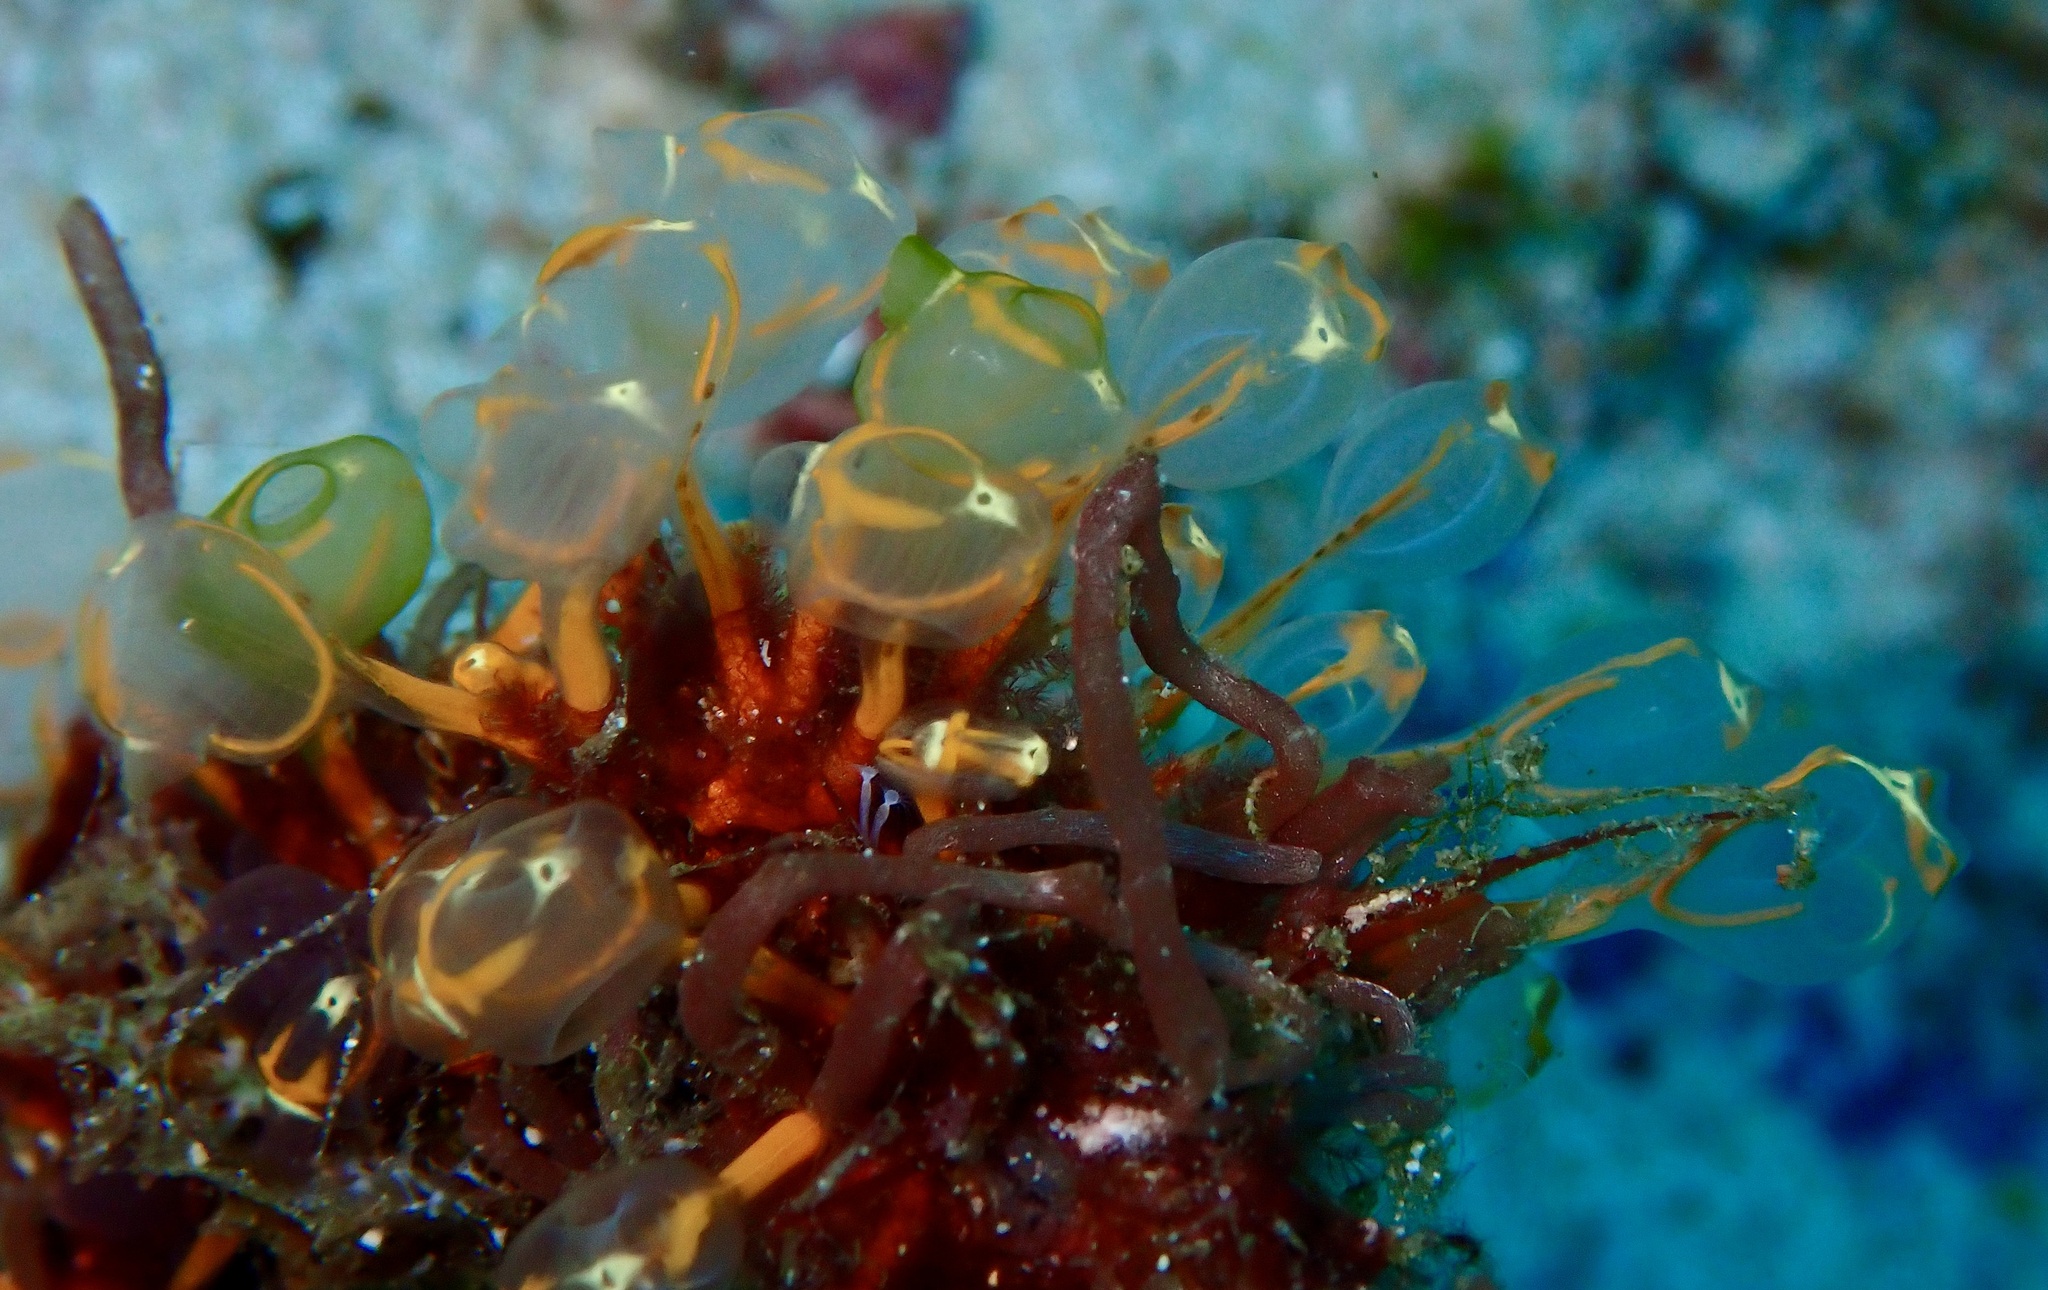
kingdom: Animalia
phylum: Chordata
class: Ascidiacea
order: Aplousobranchia
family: Clavelinidae
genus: Pycnoclavella
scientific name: Pycnoclavella detorta
